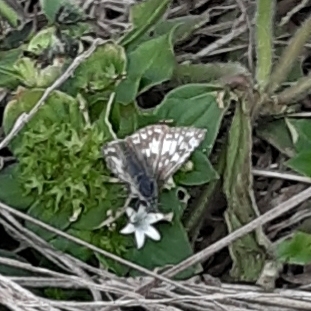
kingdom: Animalia
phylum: Arthropoda
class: Insecta
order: Lepidoptera
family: Hesperiidae
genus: Burnsius
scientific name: Burnsius
